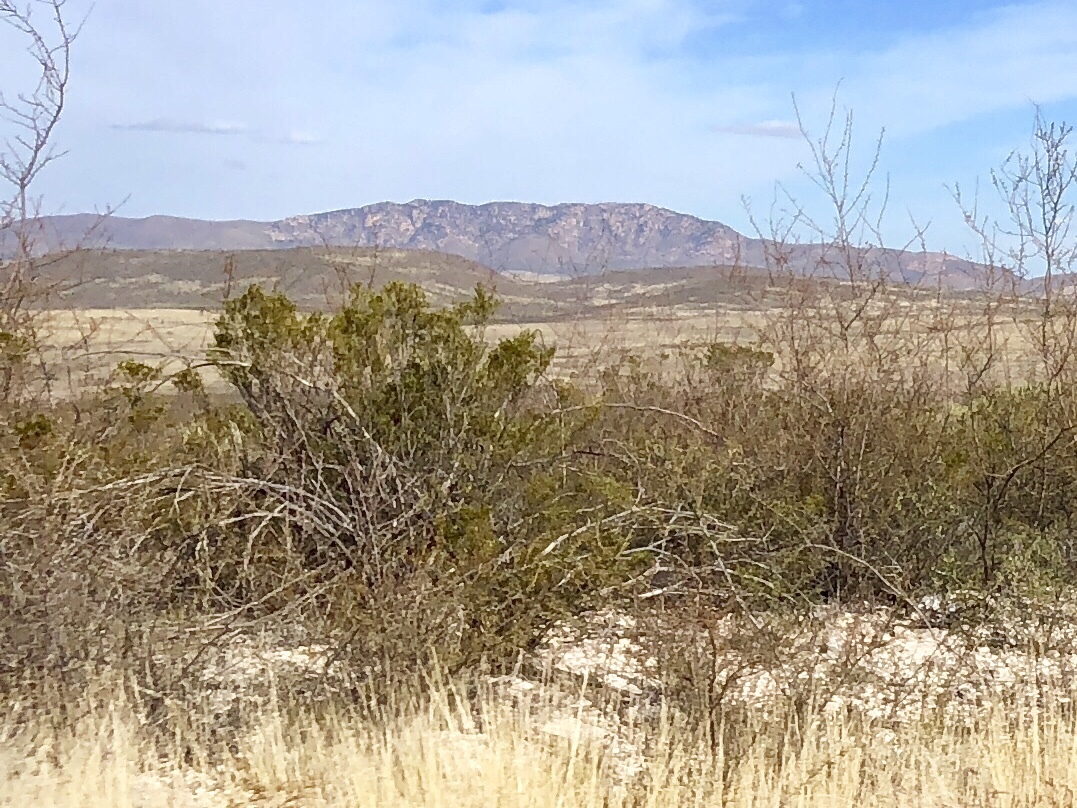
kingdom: Plantae
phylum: Tracheophyta
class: Magnoliopsida
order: Zygophyllales
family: Zygophyllaceae
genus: Larrea
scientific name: Larrea tridentata
